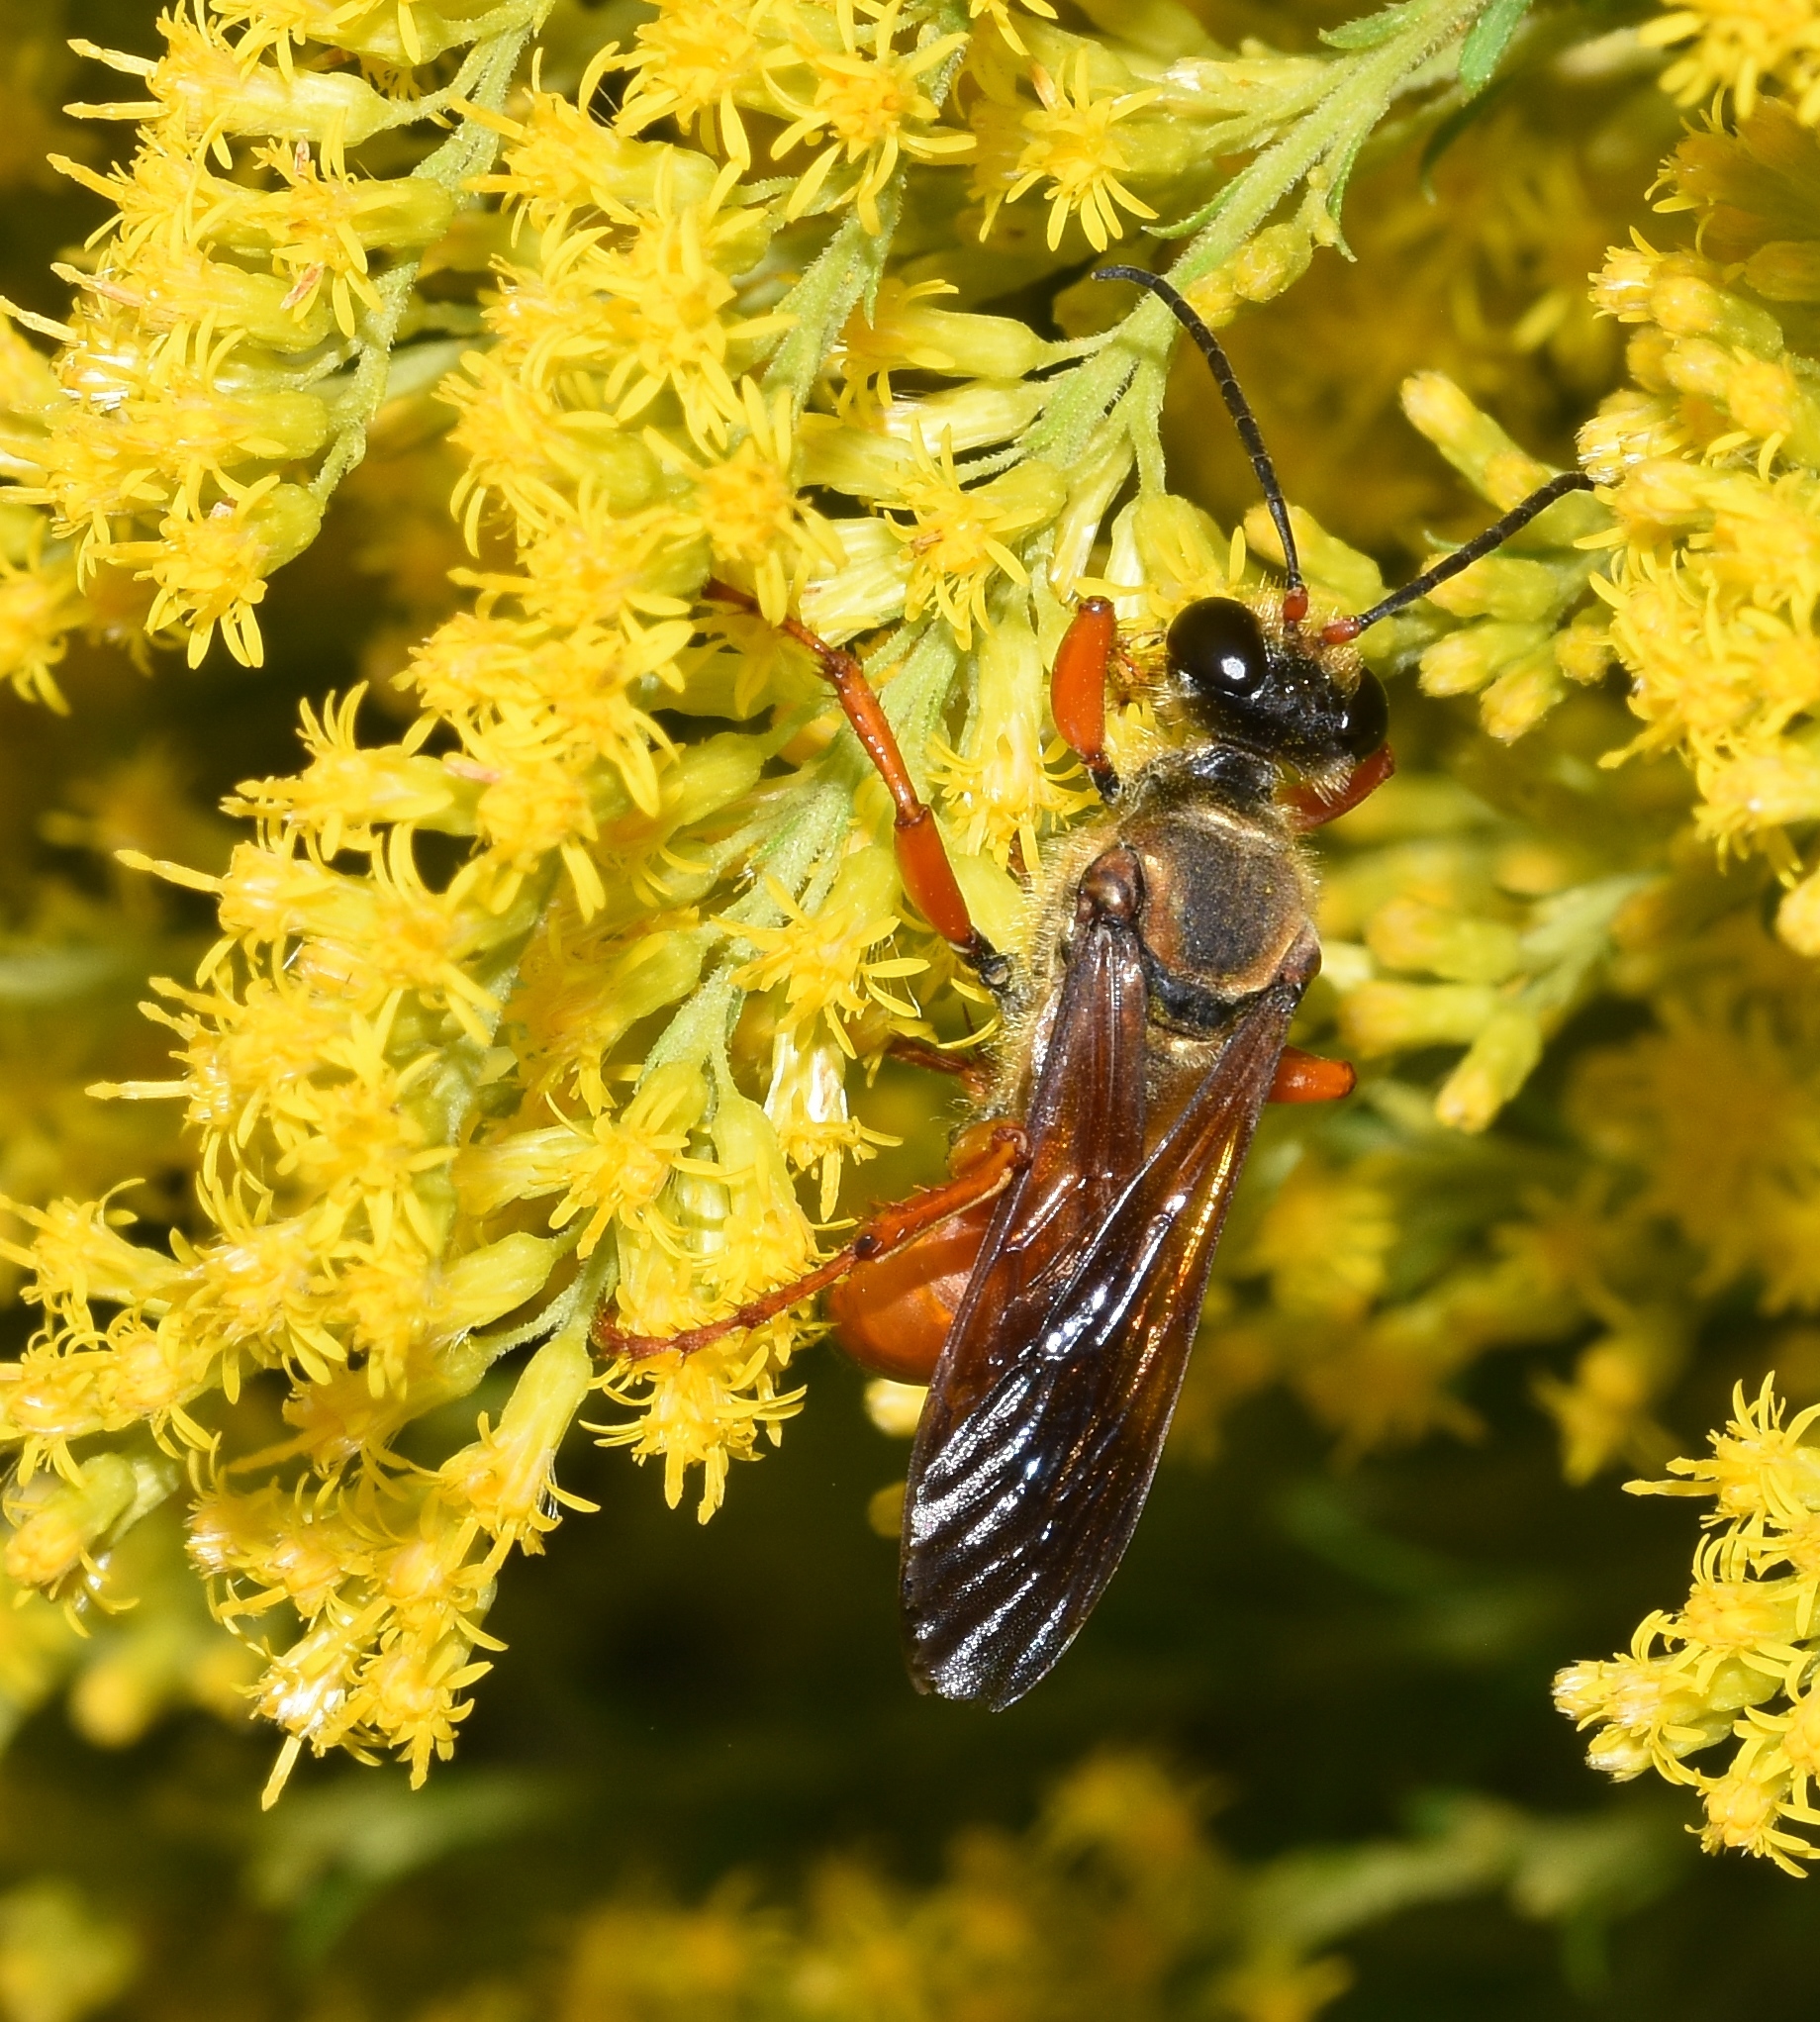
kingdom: Animalia
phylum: Arthropoda
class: Insecta
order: Hymenoptera
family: Sphecidae
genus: Sphex
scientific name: Sphex ichneumoneus
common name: Great golden digger wasp
